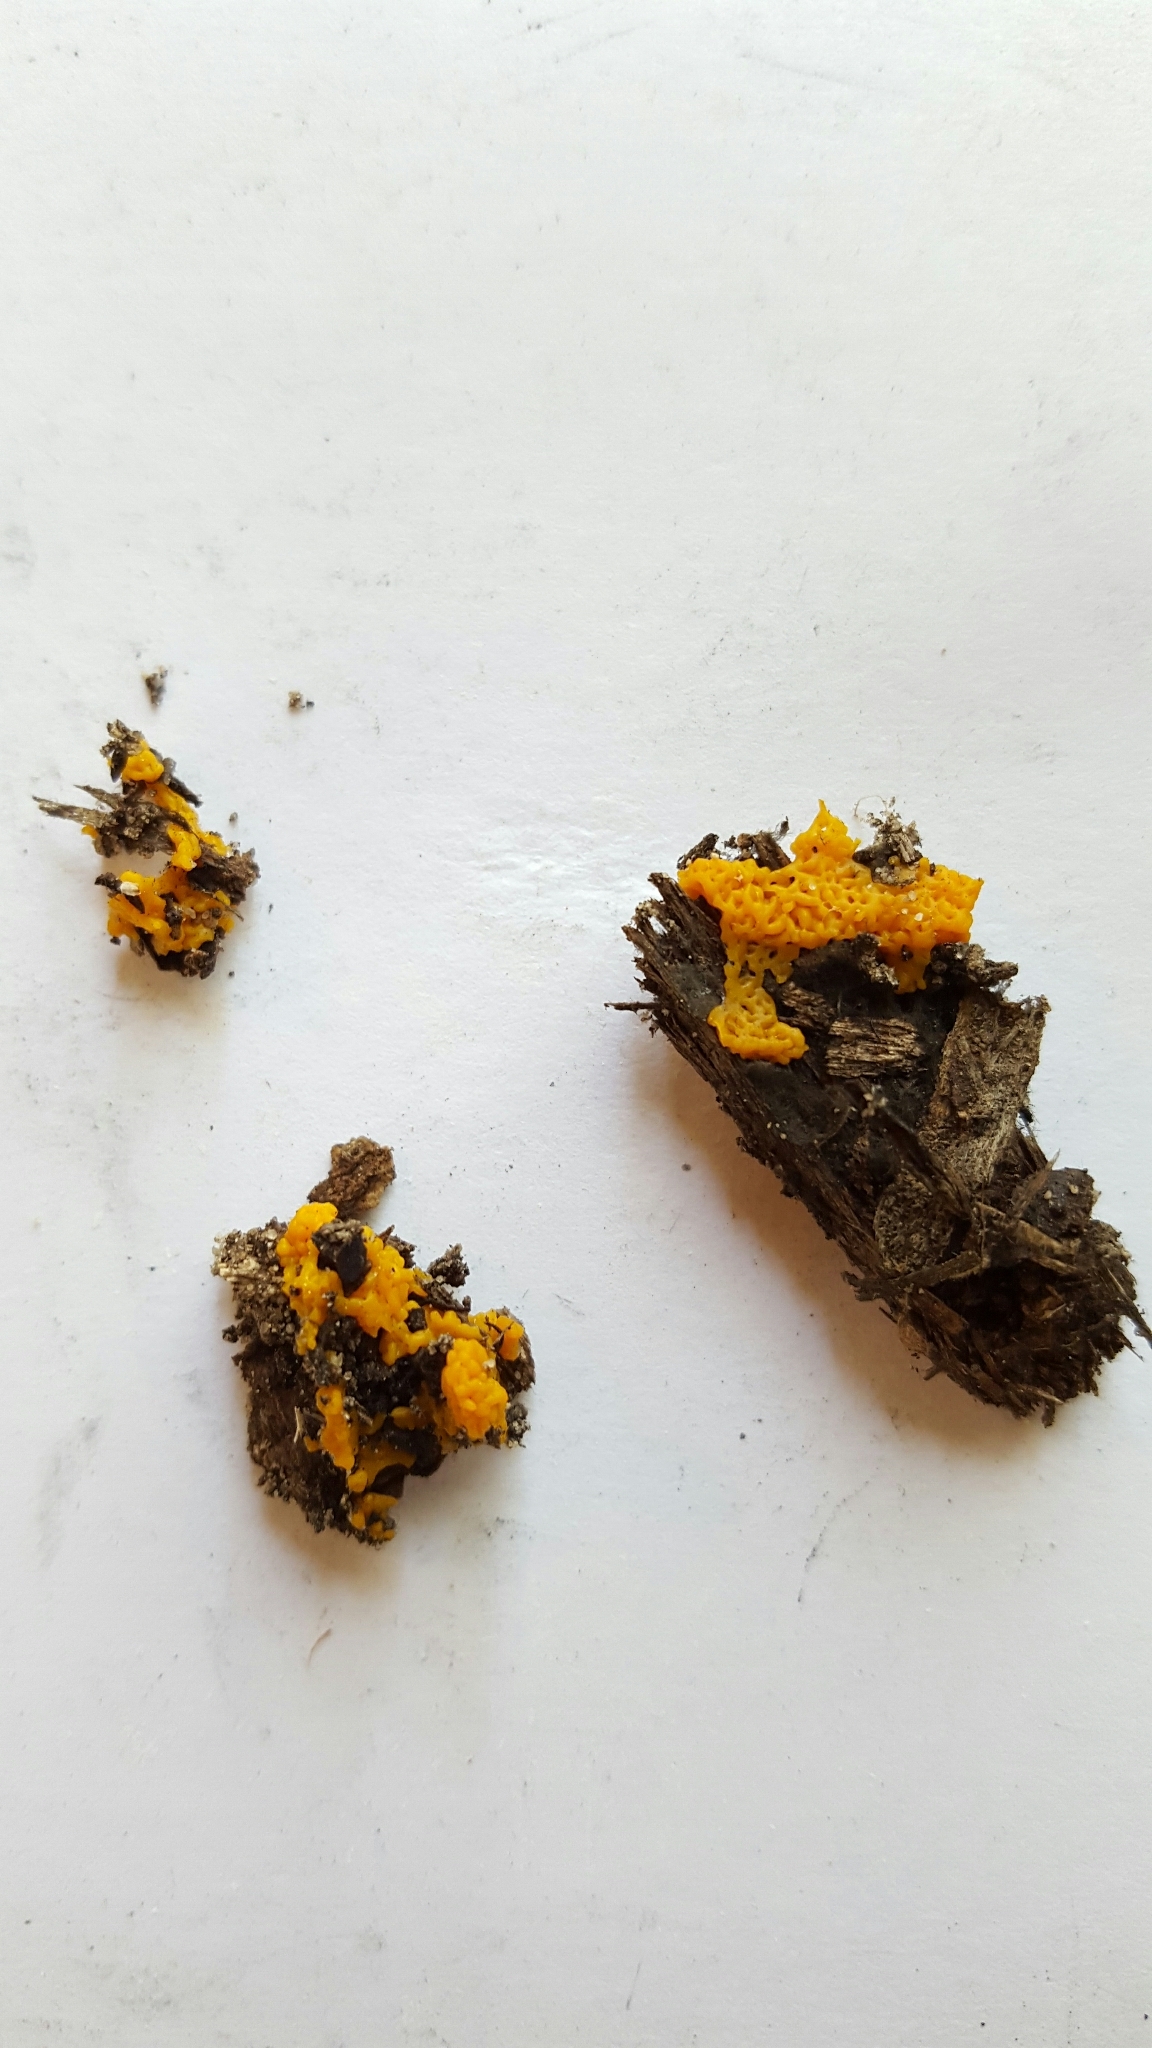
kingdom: Protozoa
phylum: Mycetozoa
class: Myxomycetes
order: Trichiales
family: Arcyriaceae
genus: Hemitrichia
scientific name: Hemitrichia serpula
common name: Pretzel slime mold
